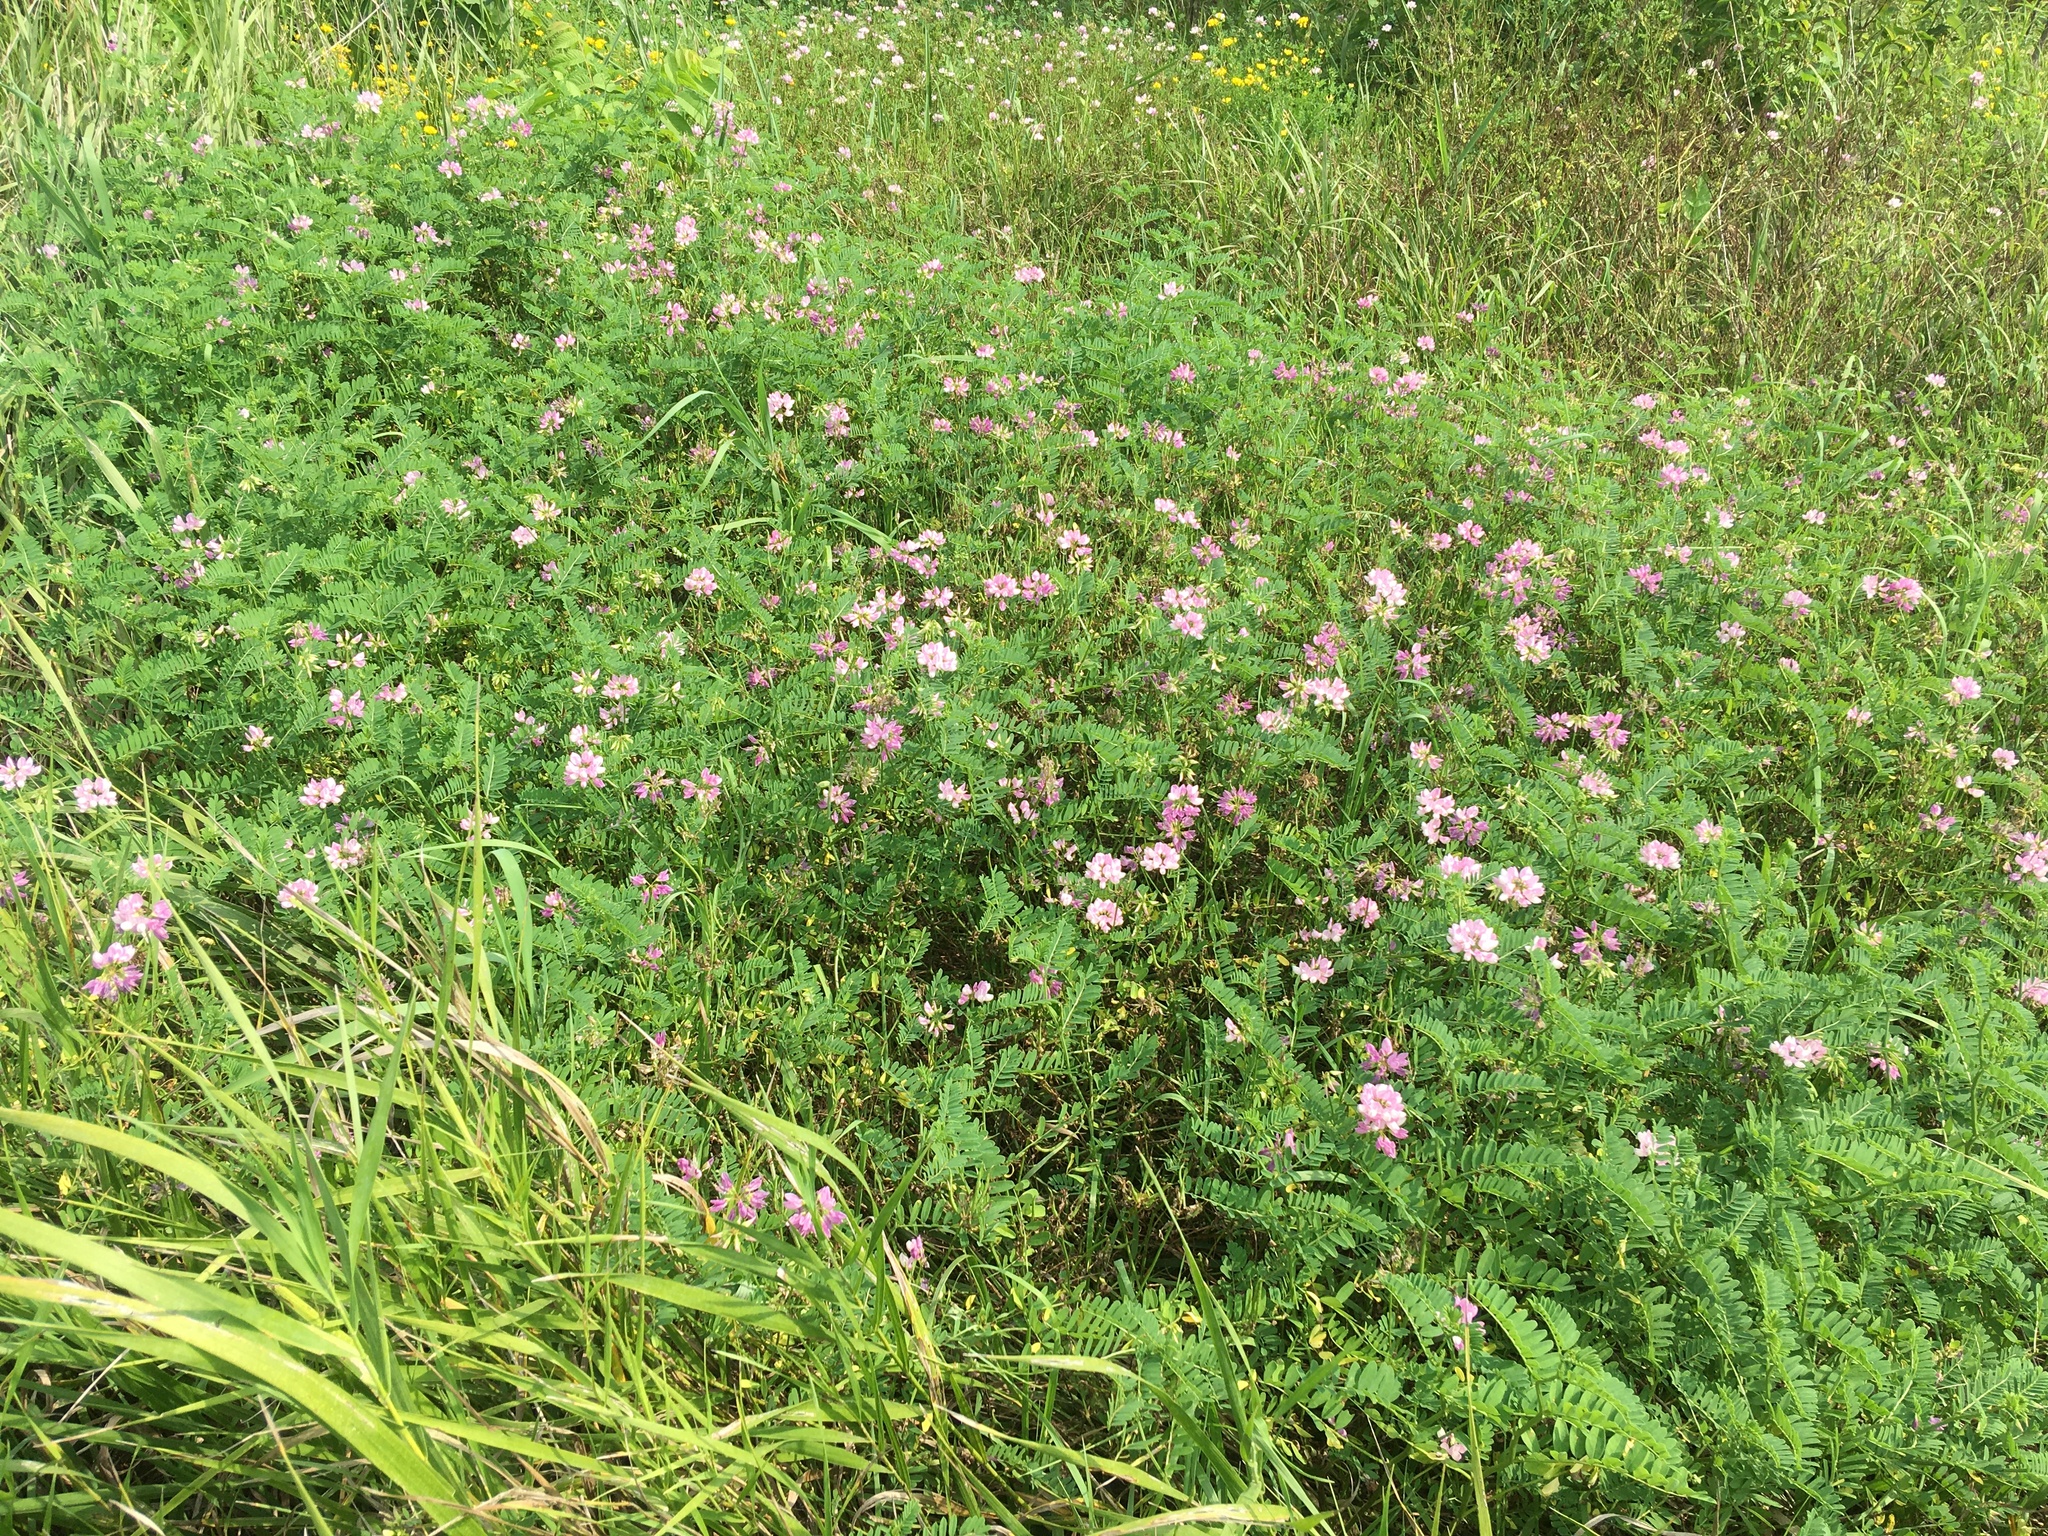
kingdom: Plantae
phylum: Tracheophyta
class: Magnoliopsida
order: Fabales
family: Fabaceae
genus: Coronilla
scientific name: Coronilla varia
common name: Crownvetch
